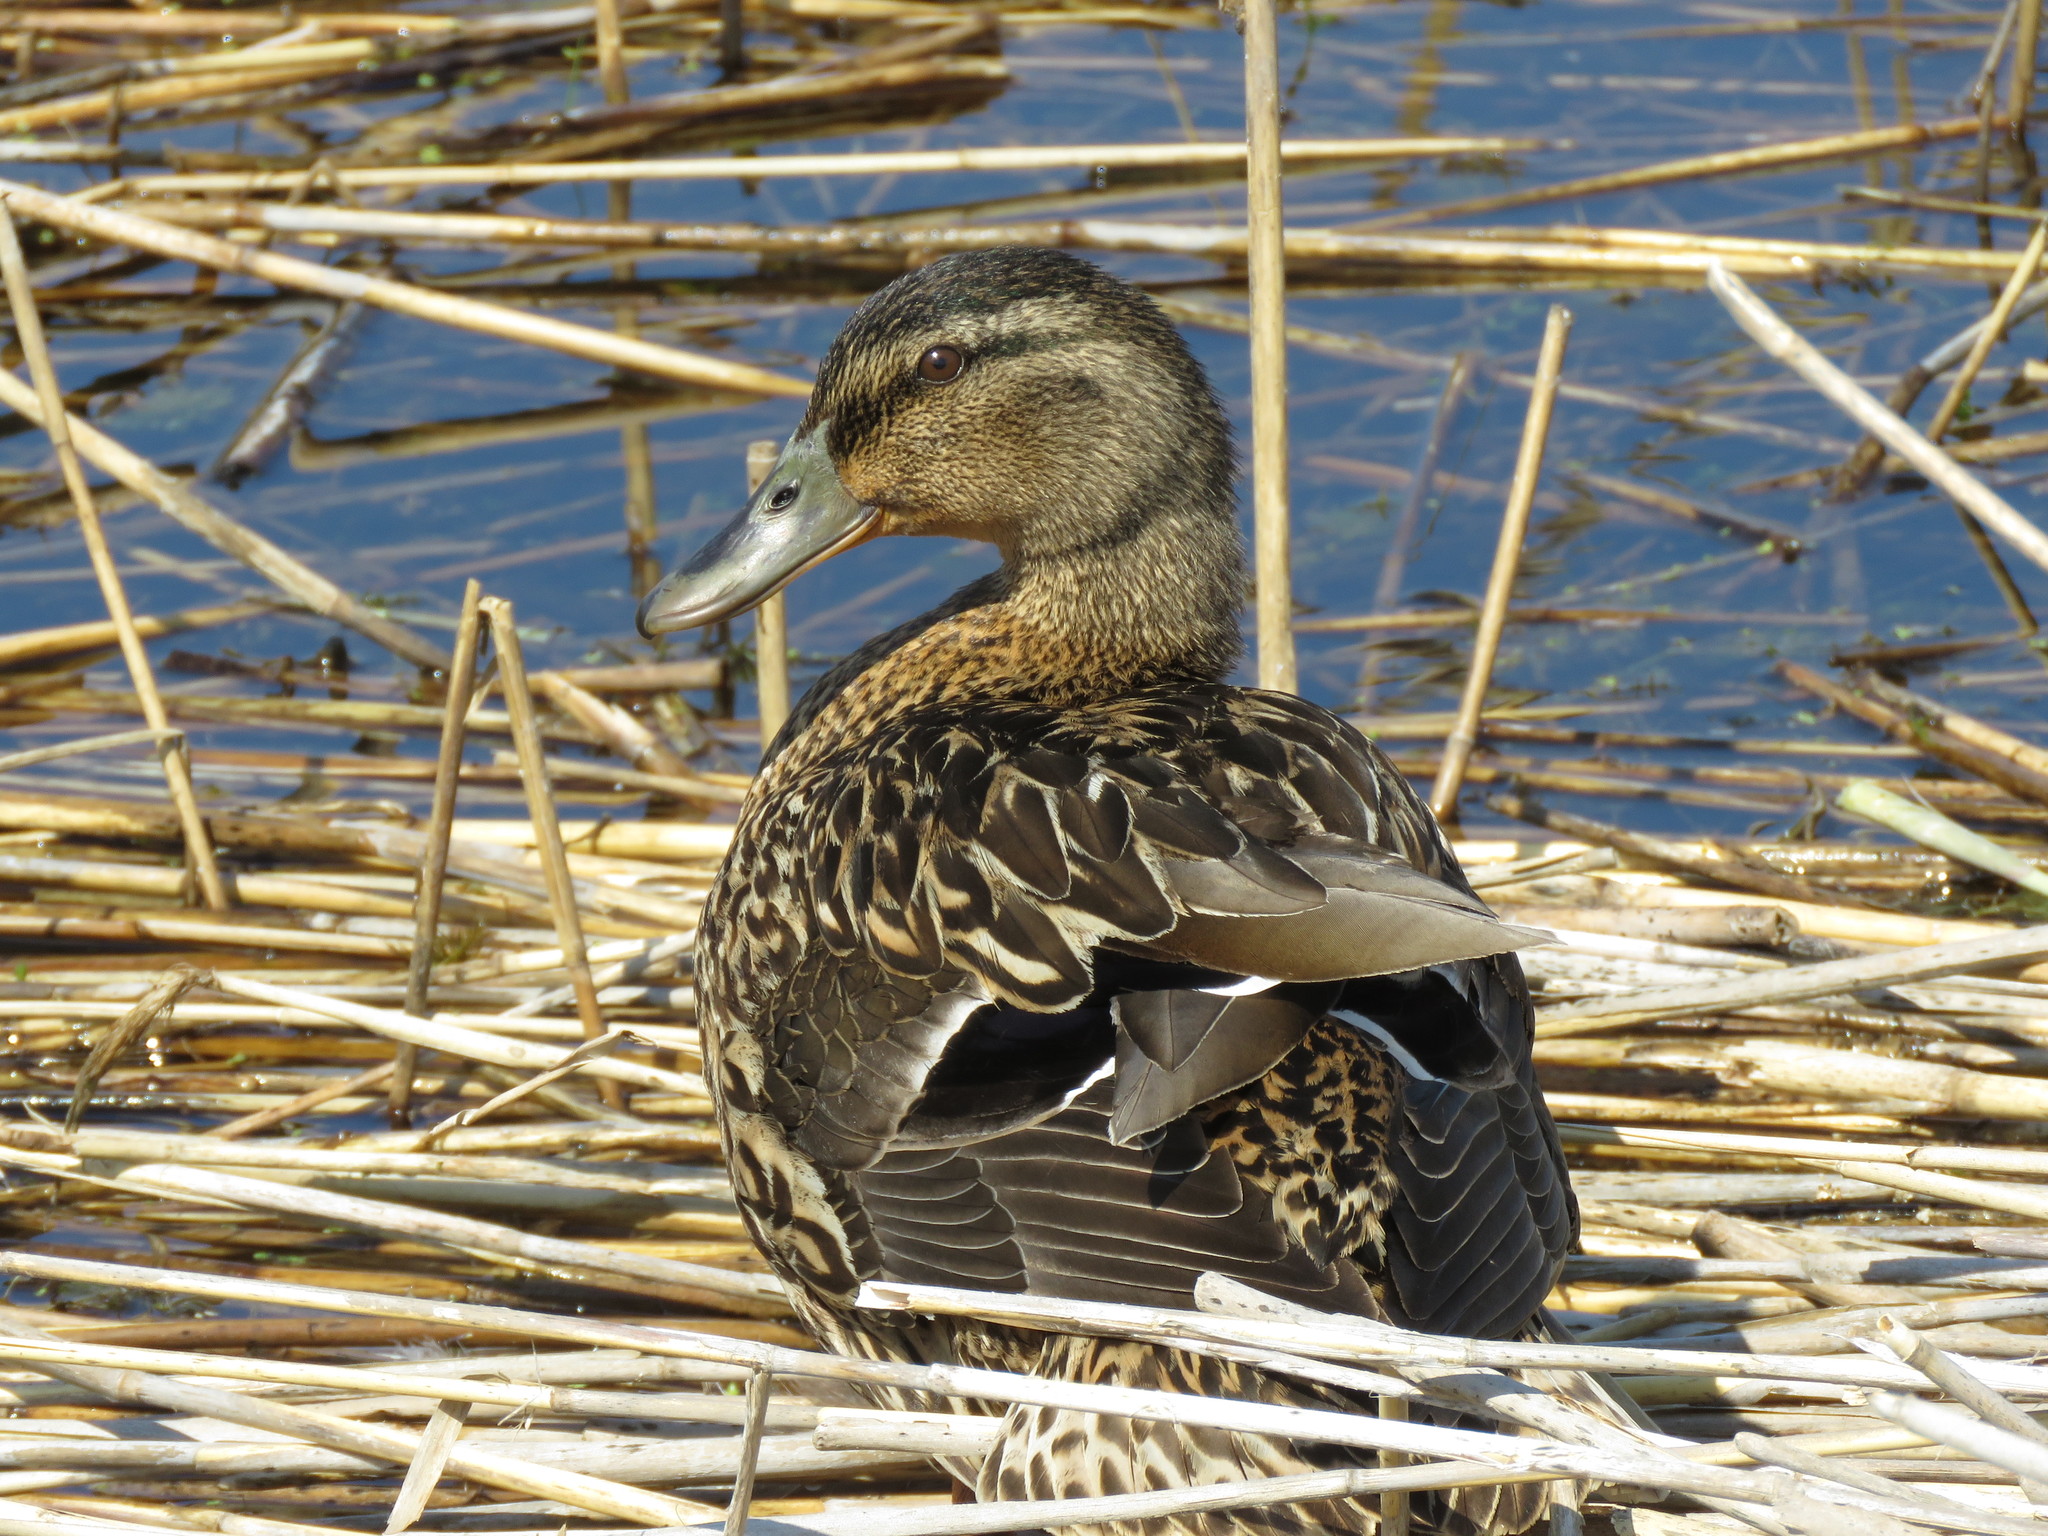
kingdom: Animalia
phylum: Chordata
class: Aves
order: Anseriformes
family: Anatidae
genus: Anas
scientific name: Anas platyrhynchos
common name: Mallard
